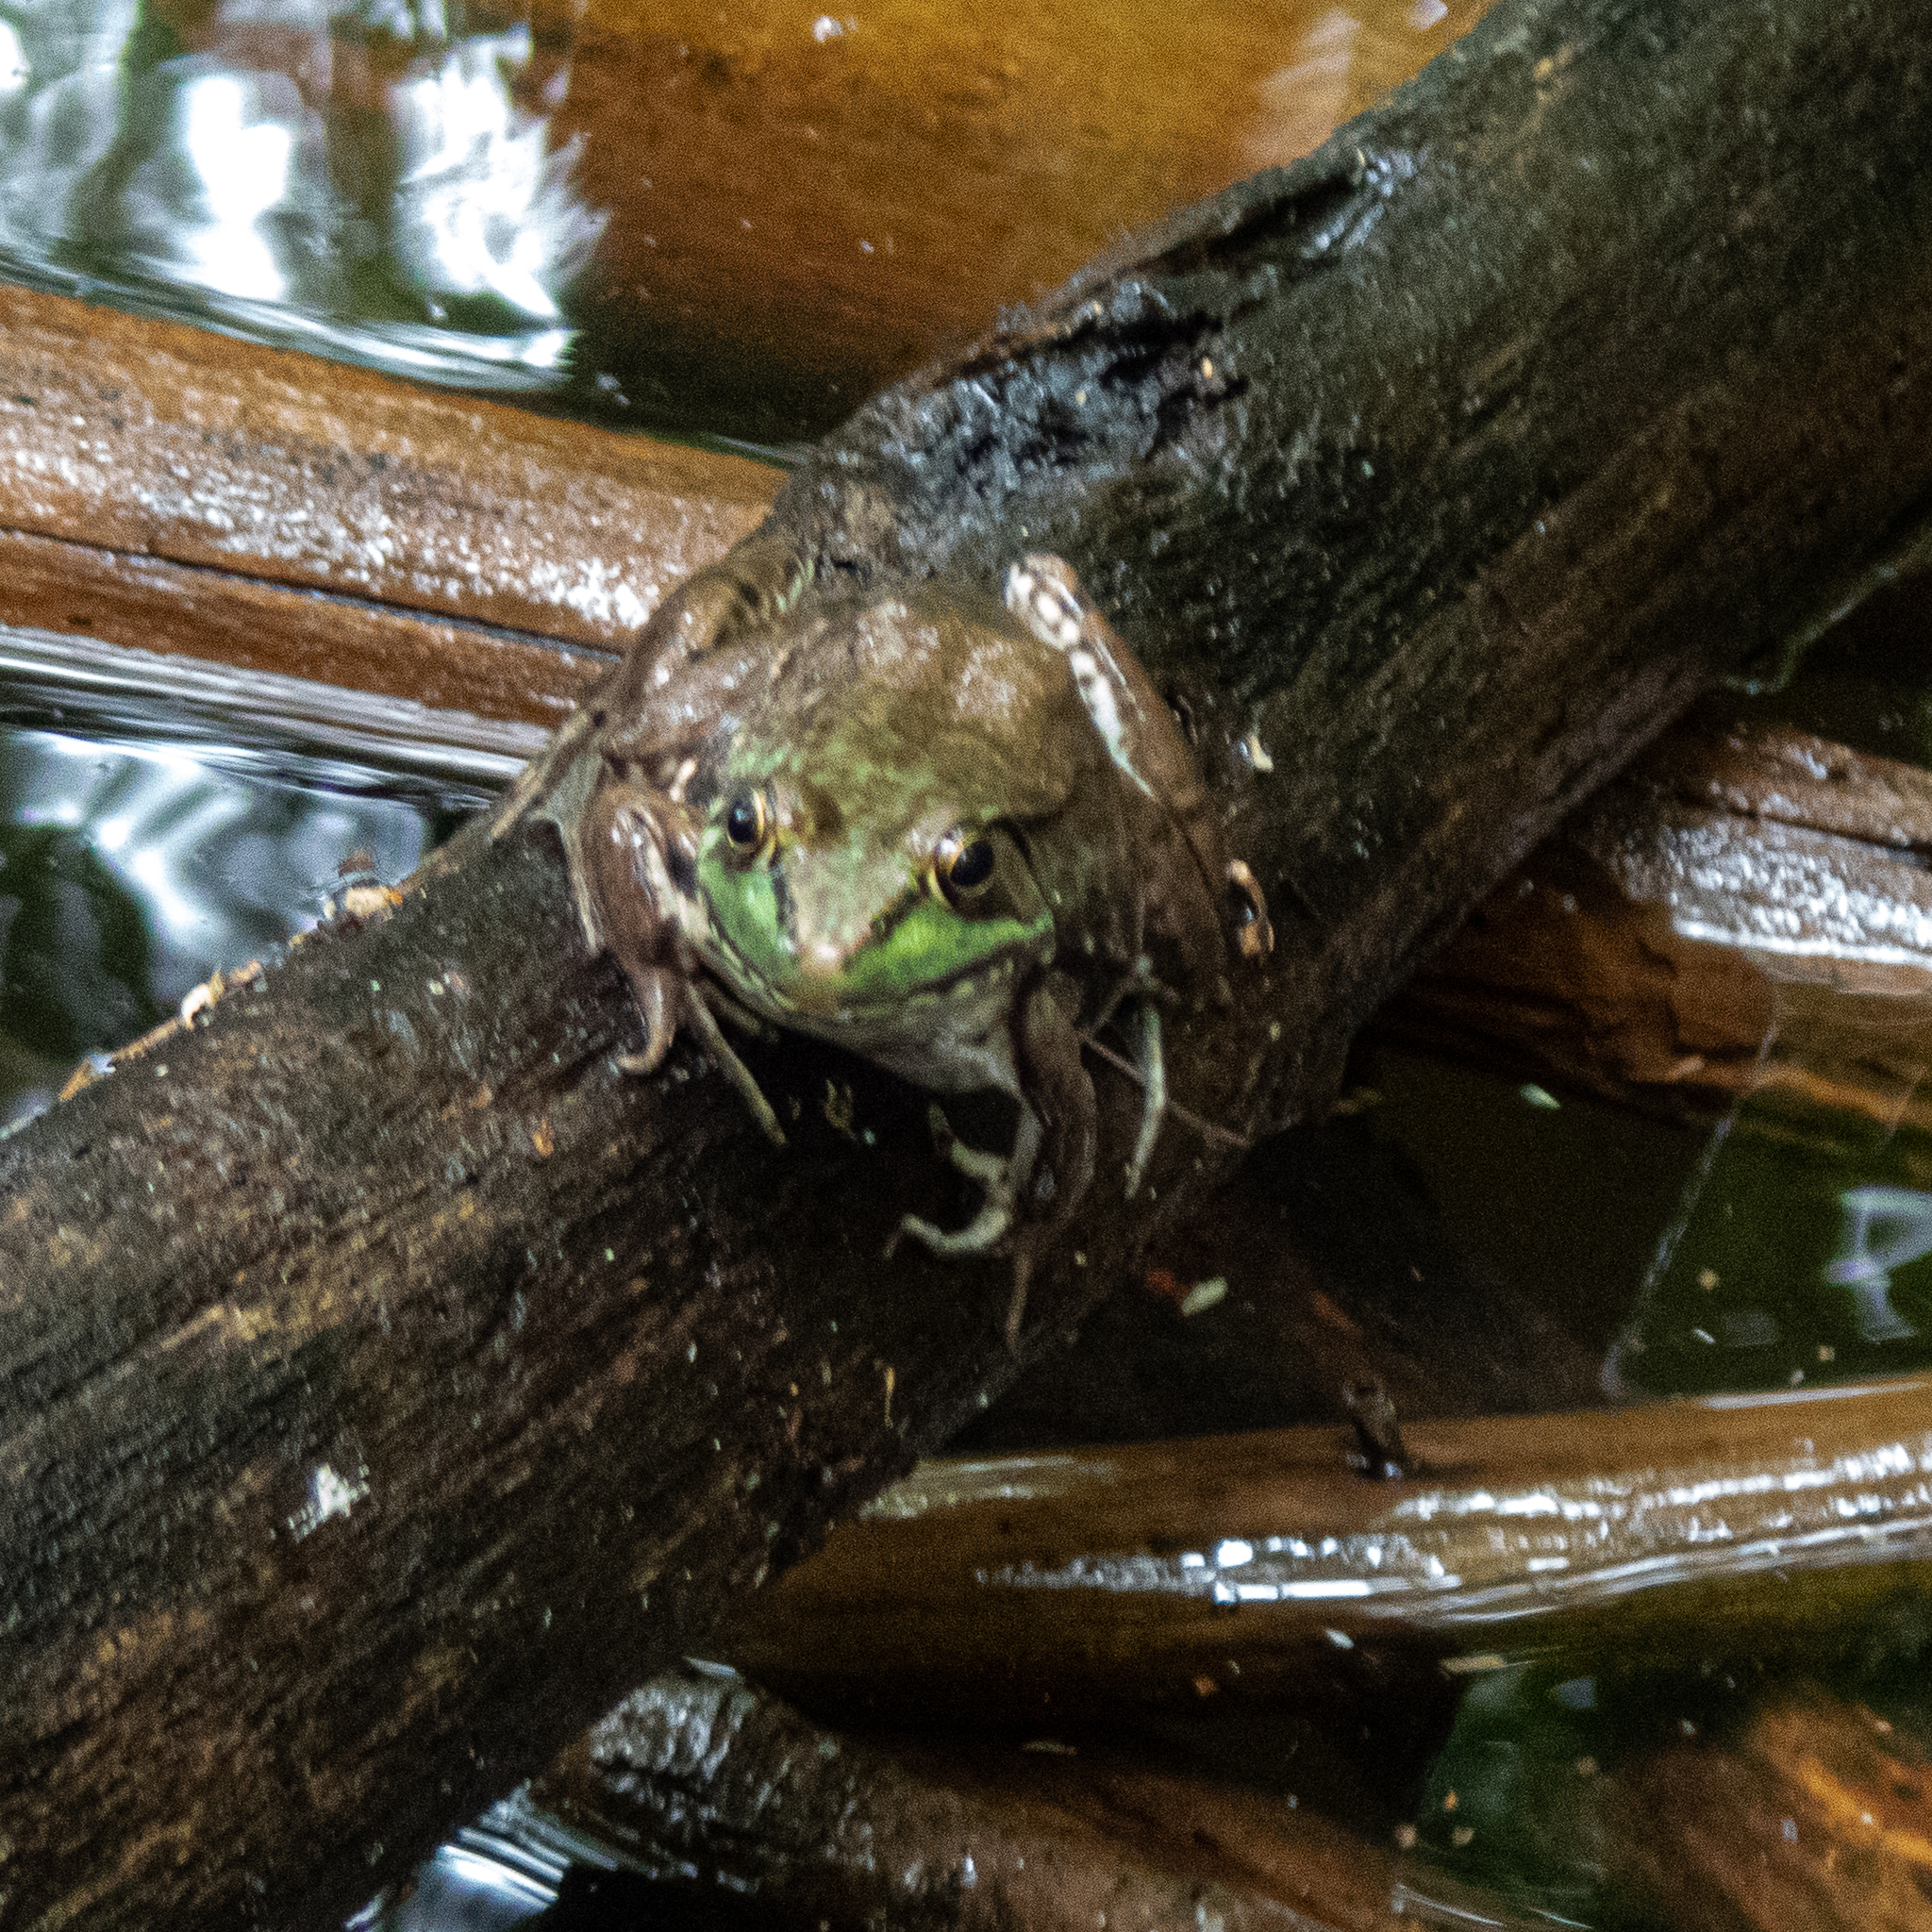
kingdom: Animalia
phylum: Chordata
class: Amphibia
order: Anura
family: Ranidae
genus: Lithobates
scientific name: Lithobates clamitans
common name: Green frog
